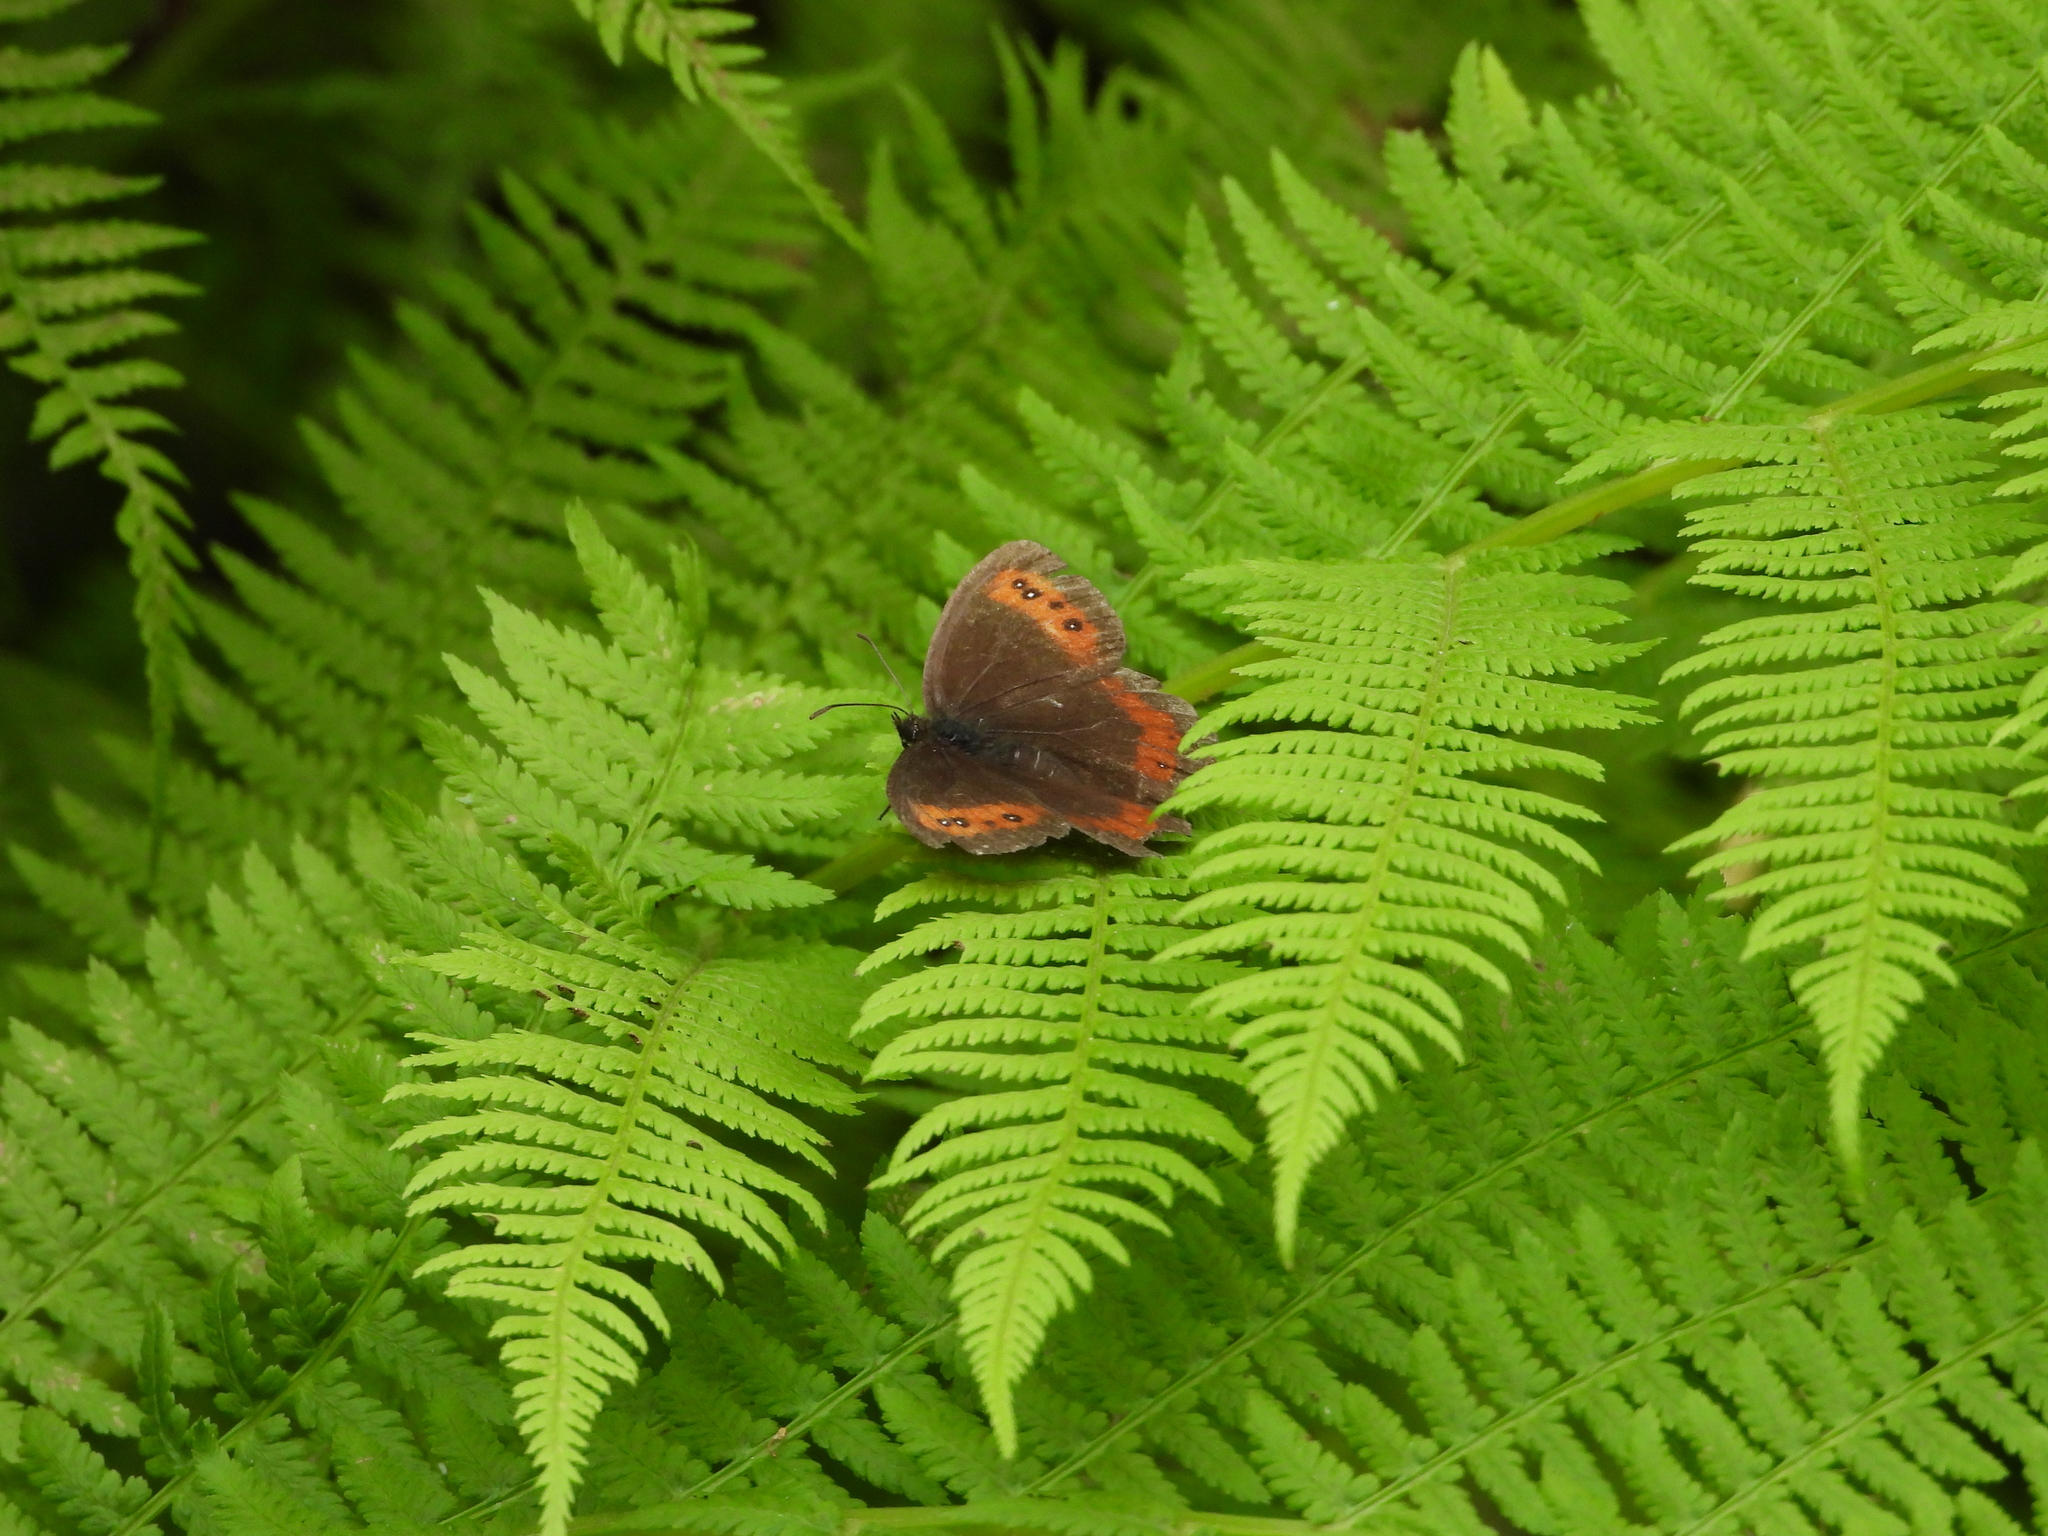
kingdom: Animalia
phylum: Arthropoda
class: Insecta
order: Lepidoptera
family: Nymphalidae
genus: Erebia
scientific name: Erebia aethiops
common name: Scotch argus
